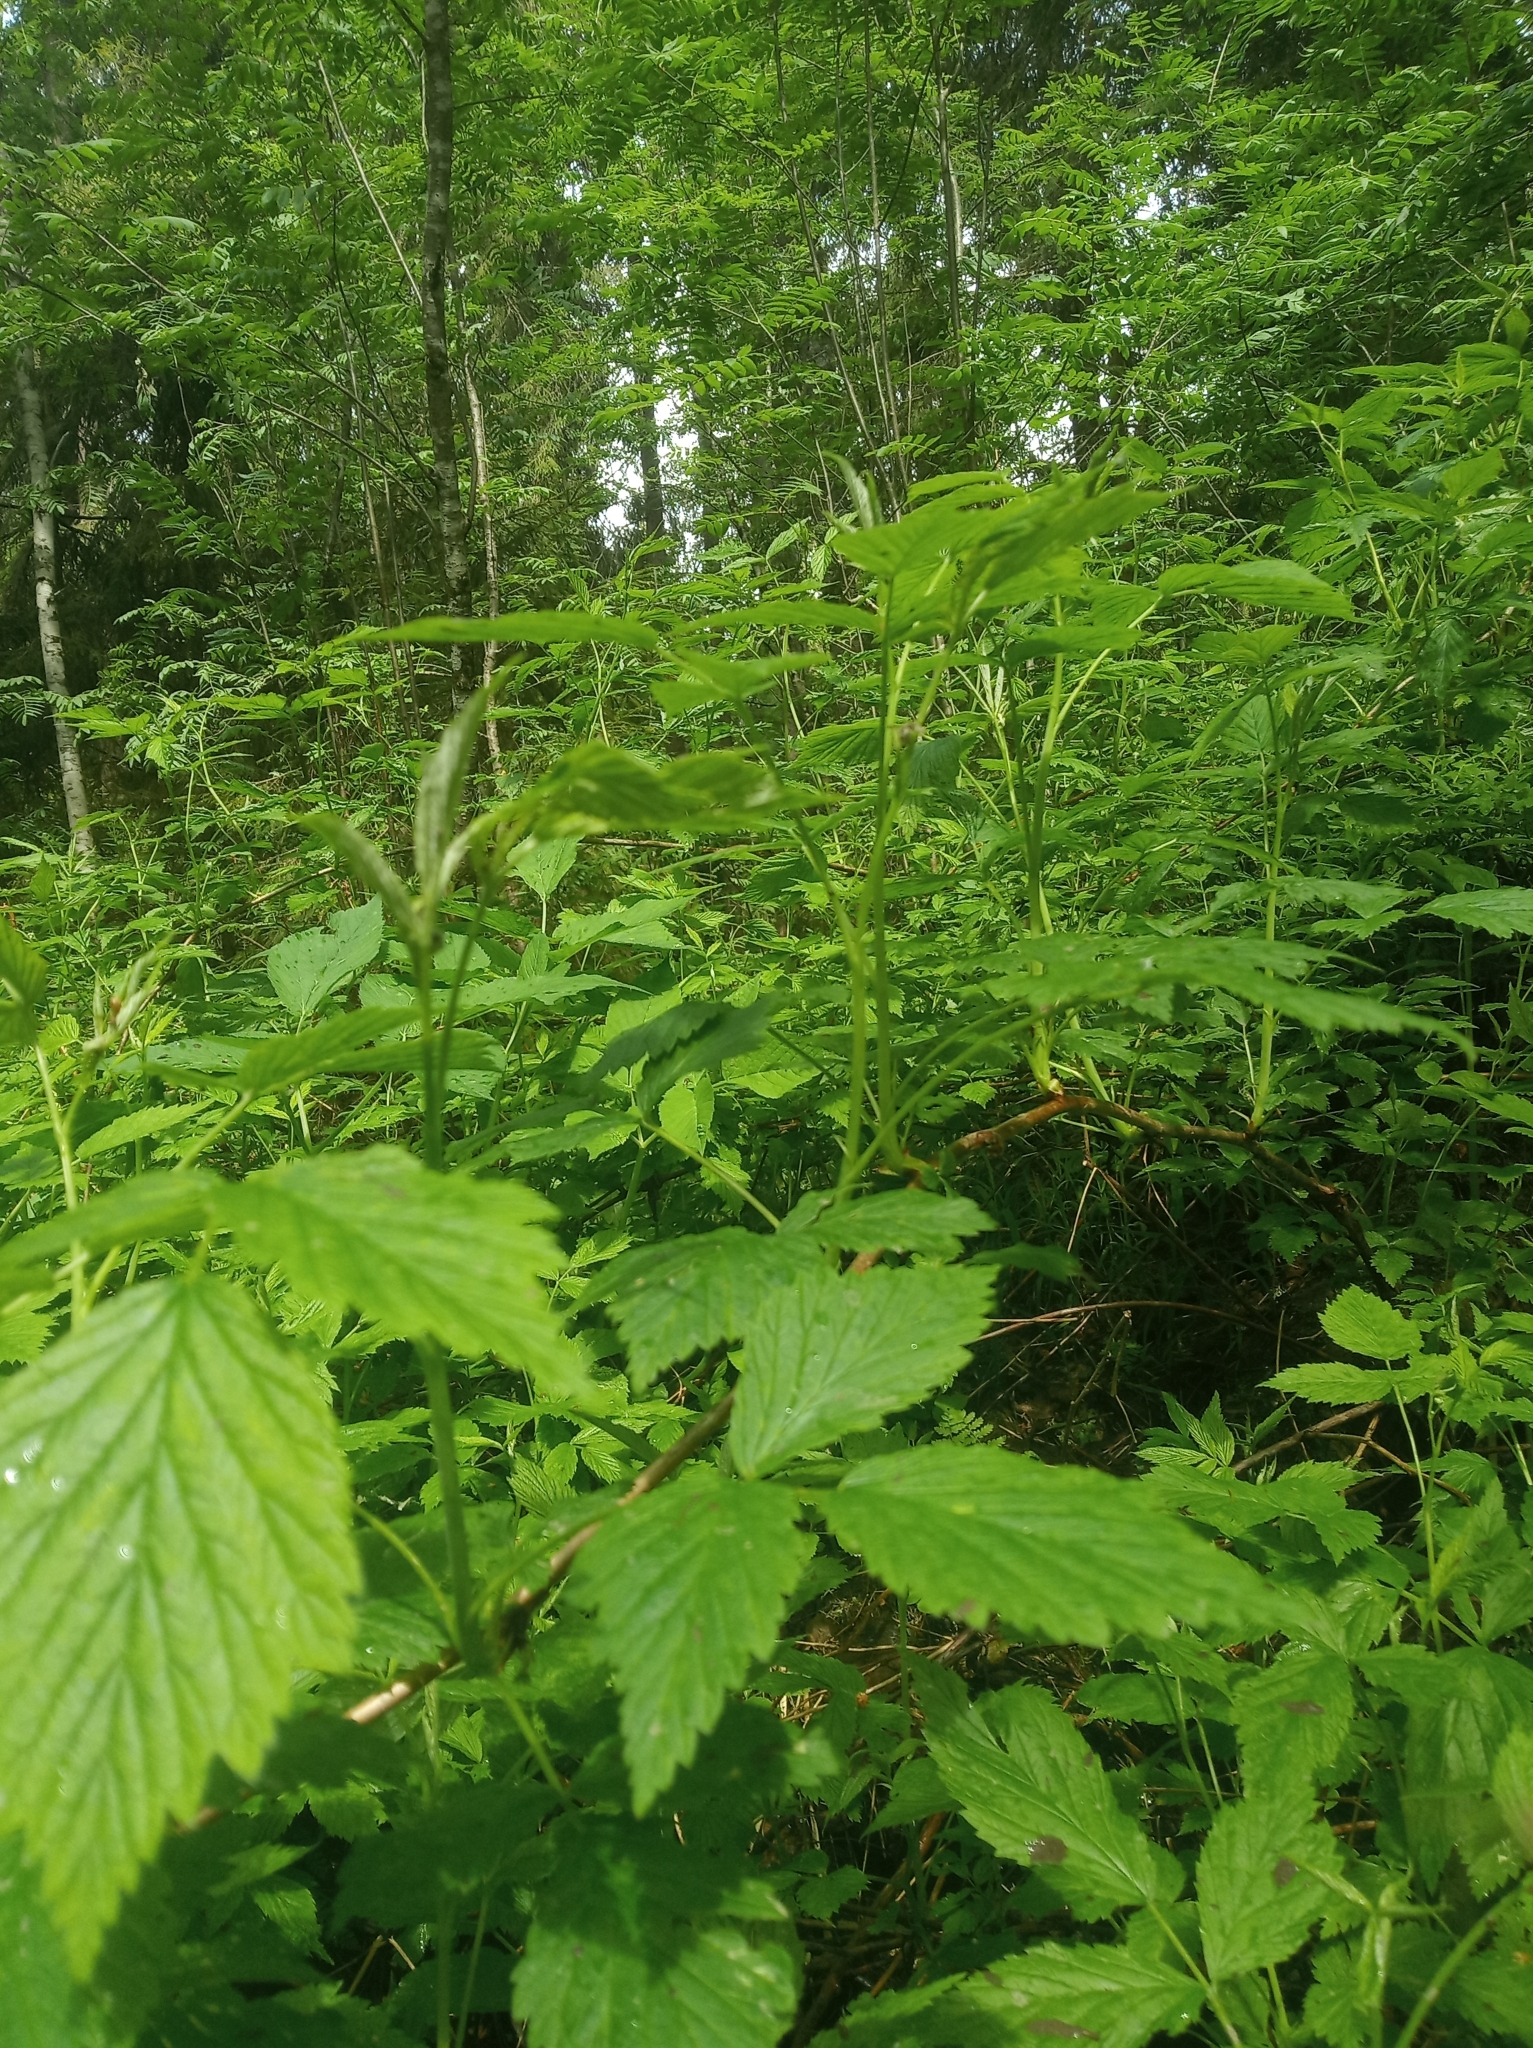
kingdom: Plantae
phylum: Tracheophyta
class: Magnoliopsida
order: Rosales
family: Rosaceae
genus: Rubus
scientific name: Rubus idaeus
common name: Raspberry
